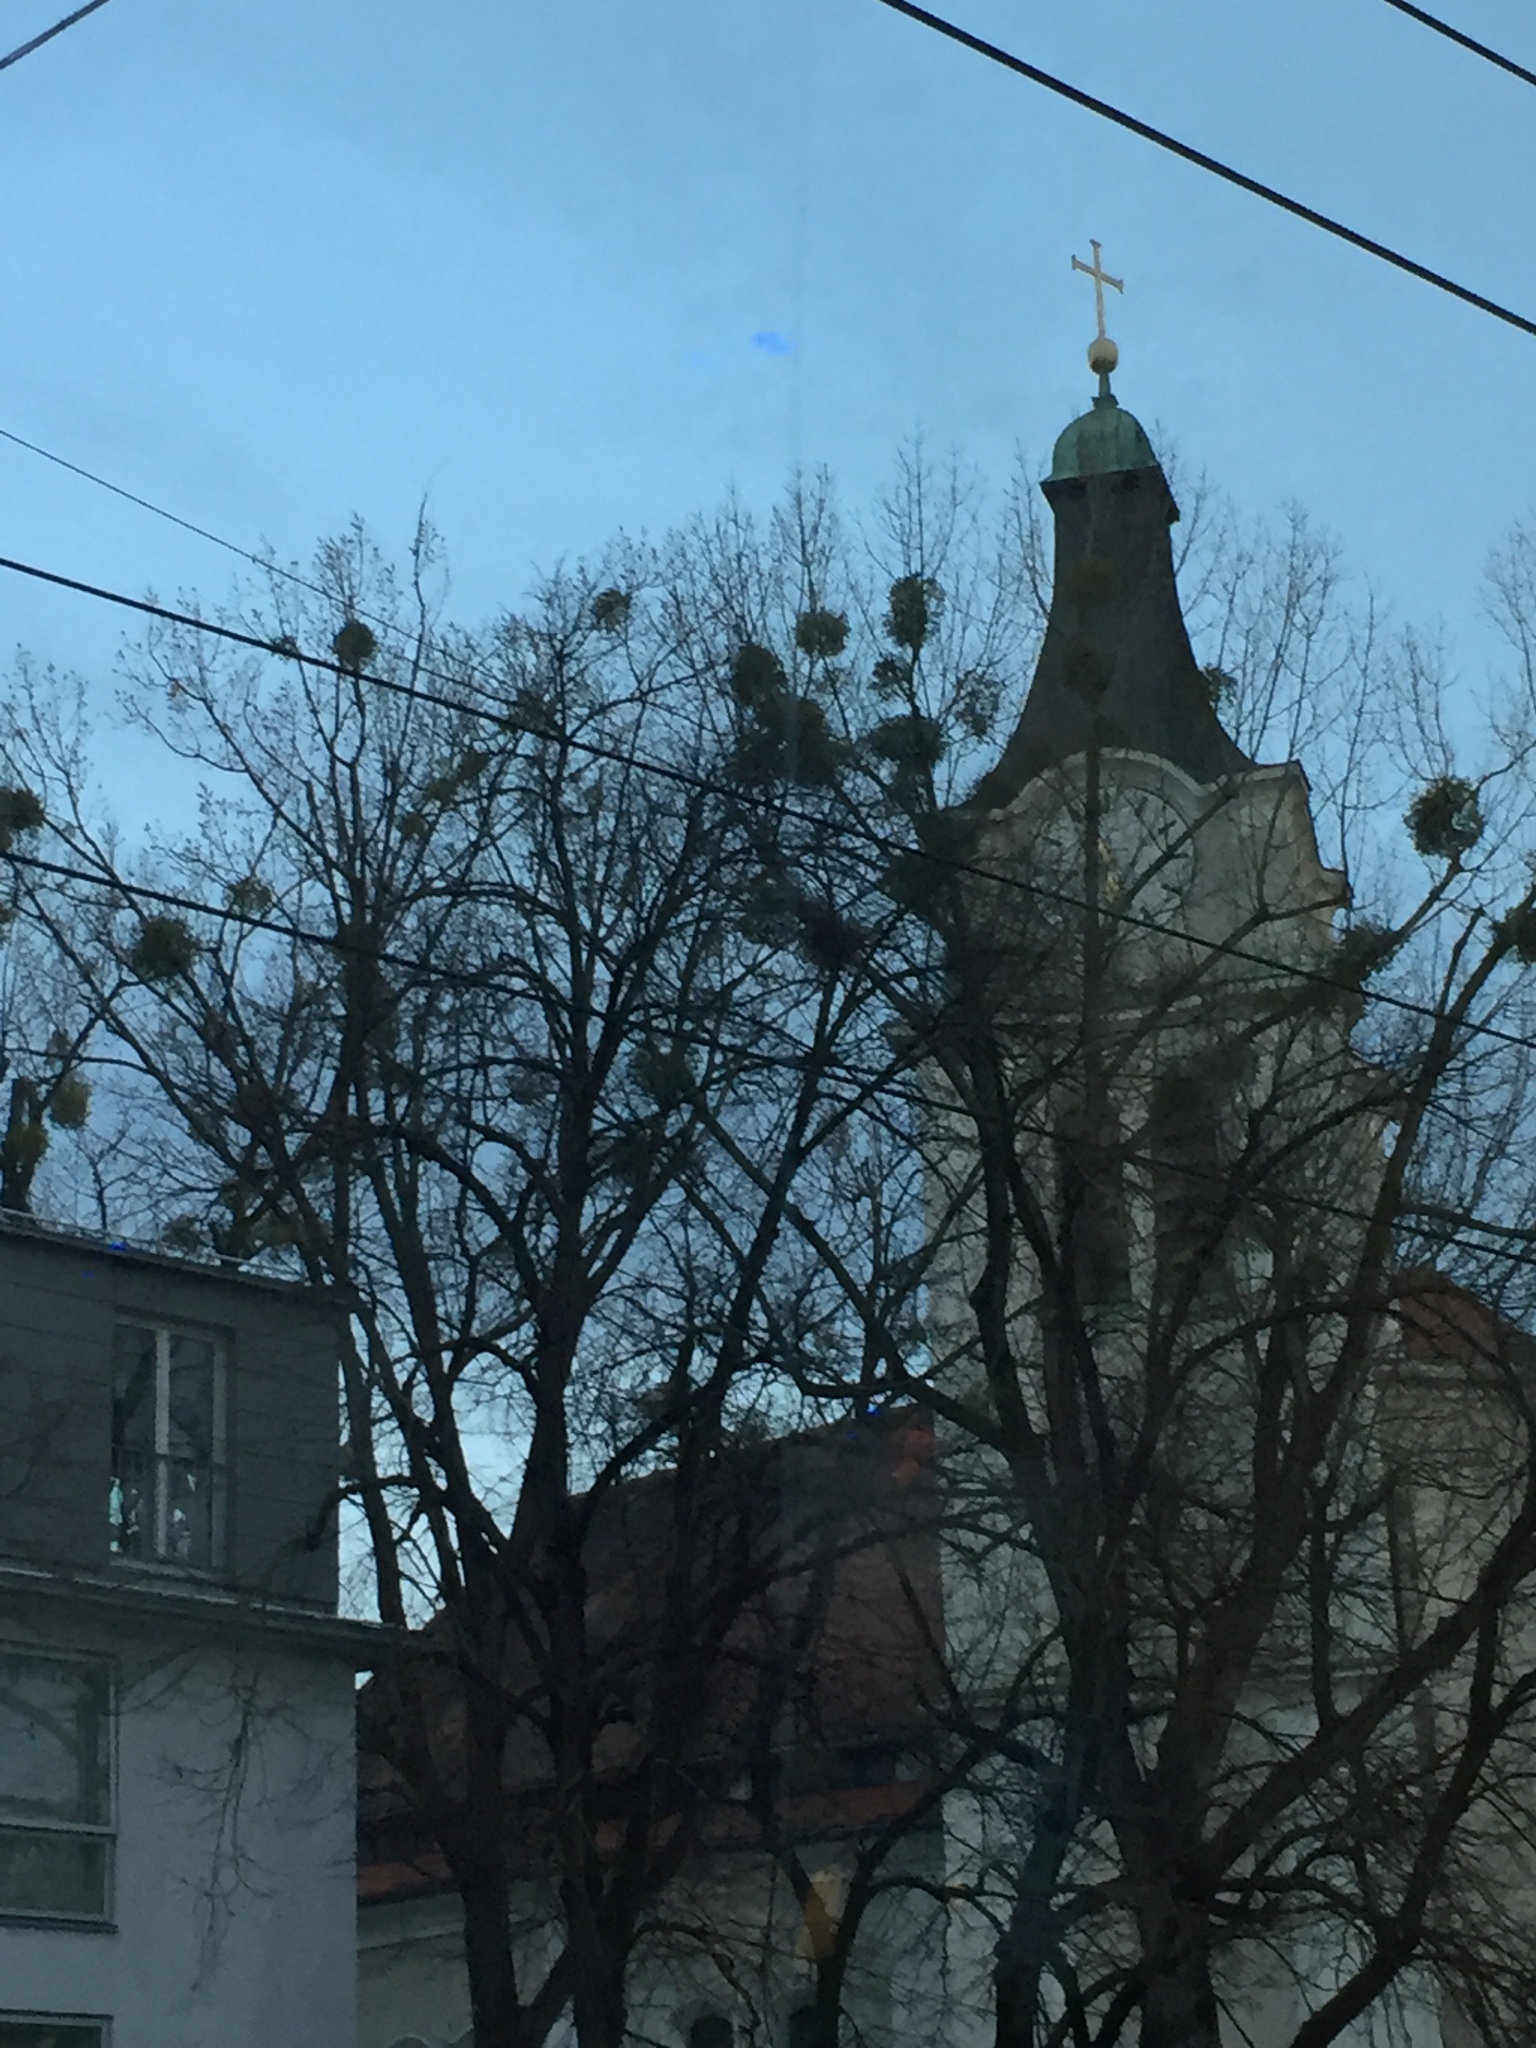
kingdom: Plantae
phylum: Tracheophyta
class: Magnoliopsida
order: Santalales
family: Viscaceae
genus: Viscum
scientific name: Viscum album
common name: Mistletoe
